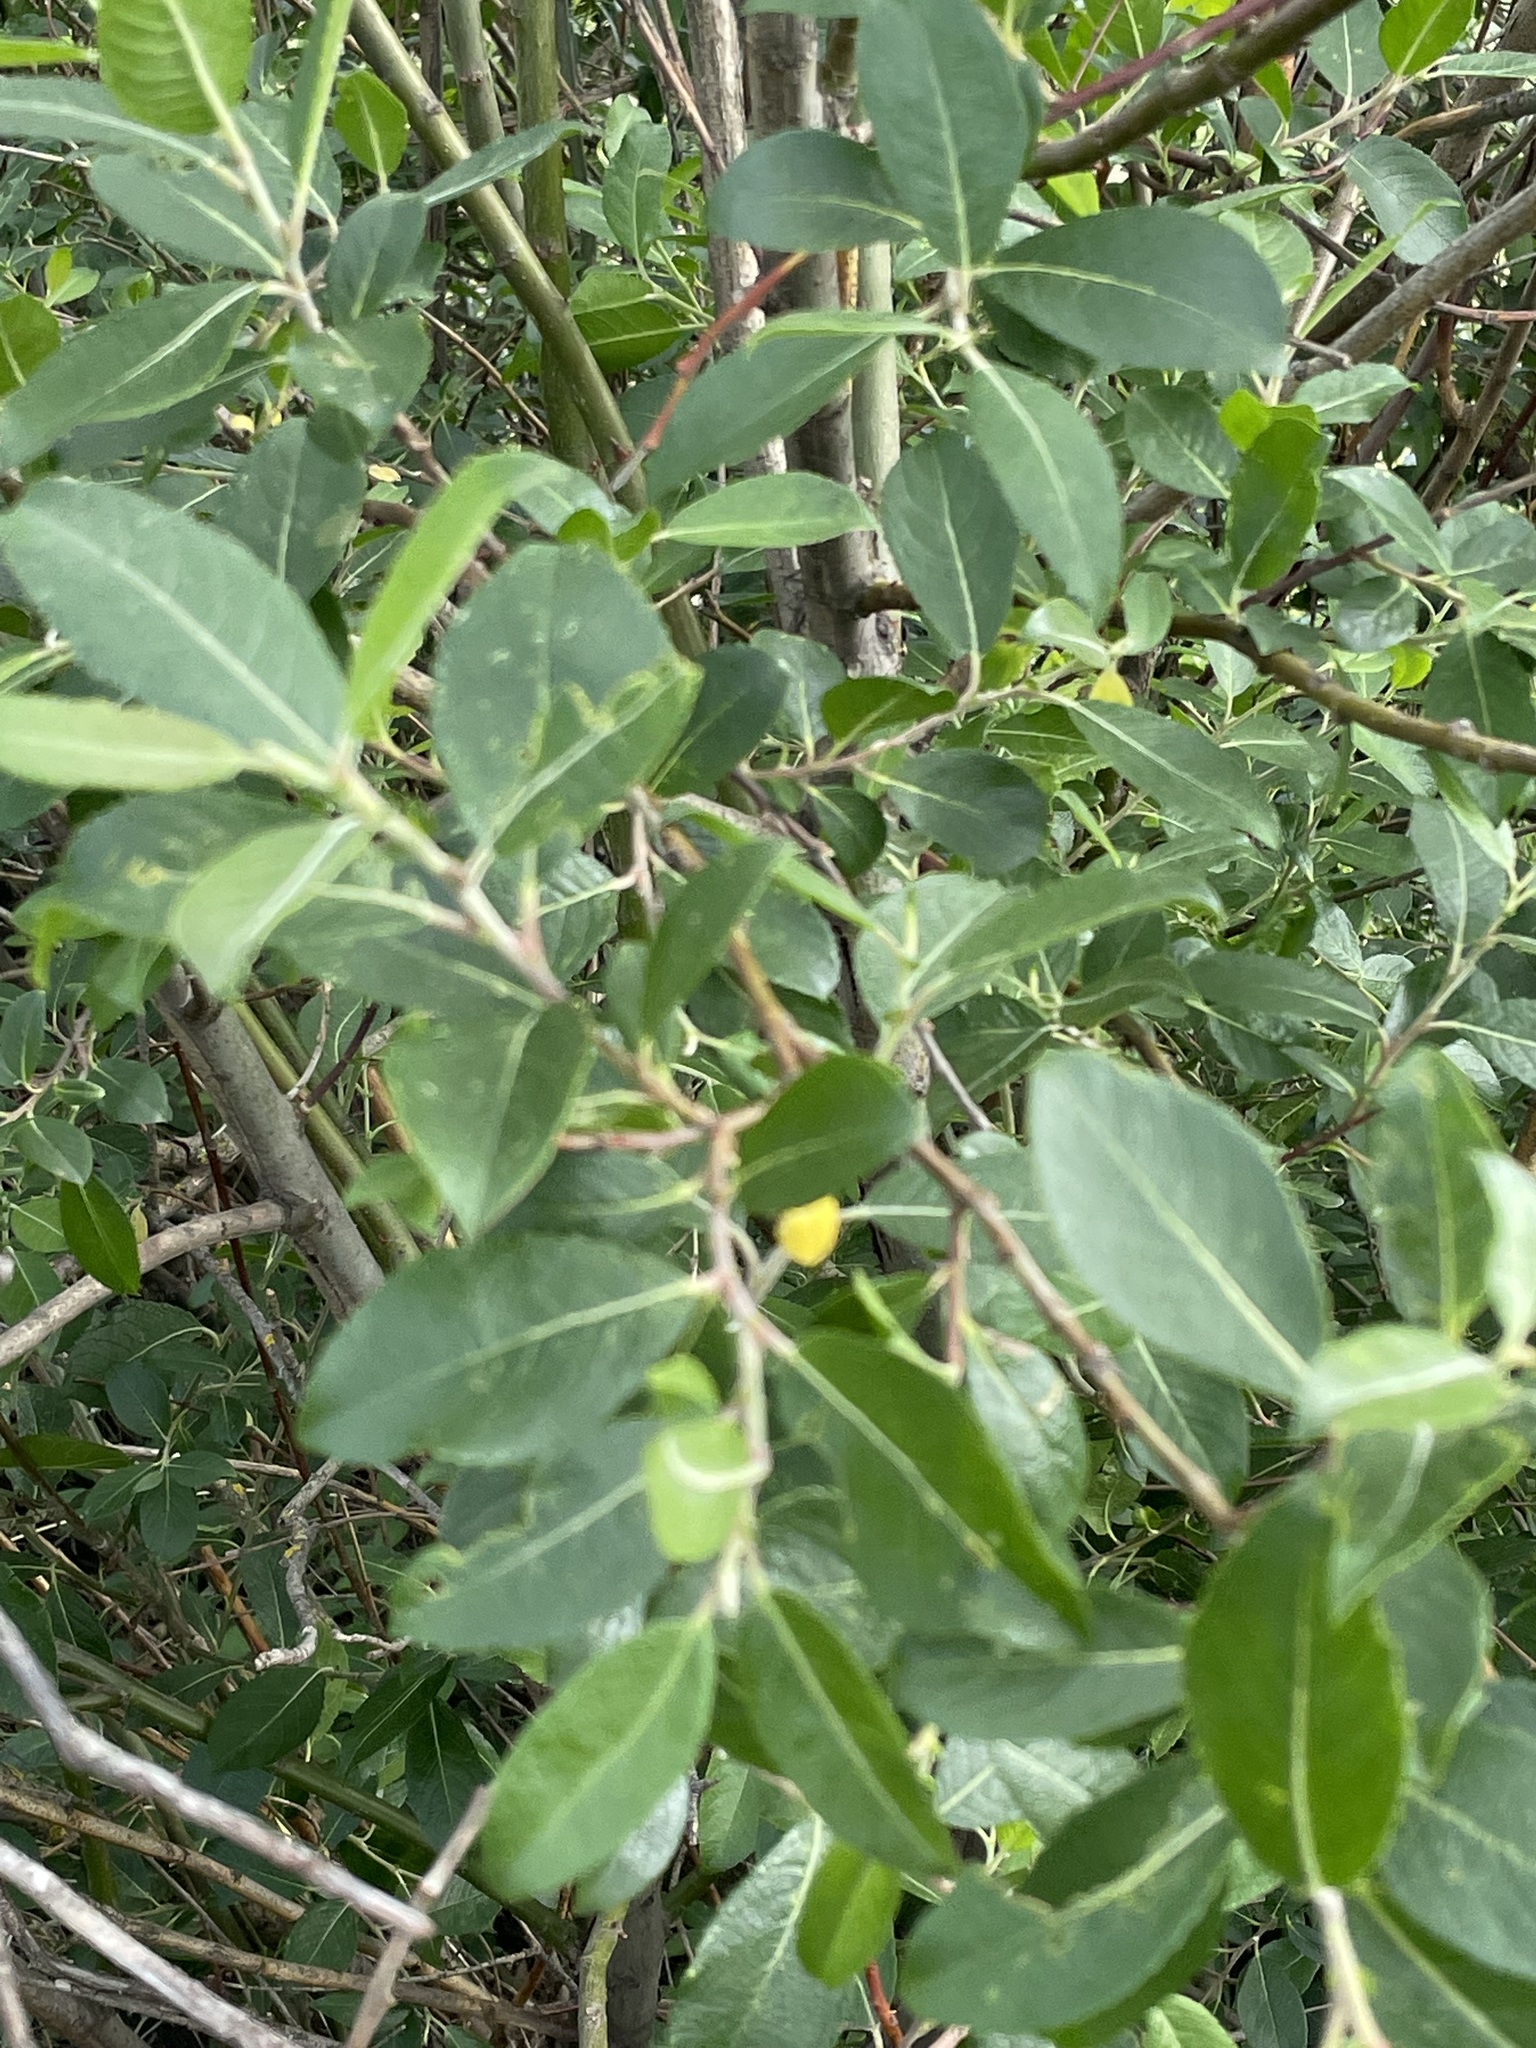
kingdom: Plantae
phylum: Tracheophyta
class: Magnoliopsida
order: Malpighiales
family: Salicaceae
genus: Salix
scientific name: Salix myrsinifolia
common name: Dark-leaved willow
